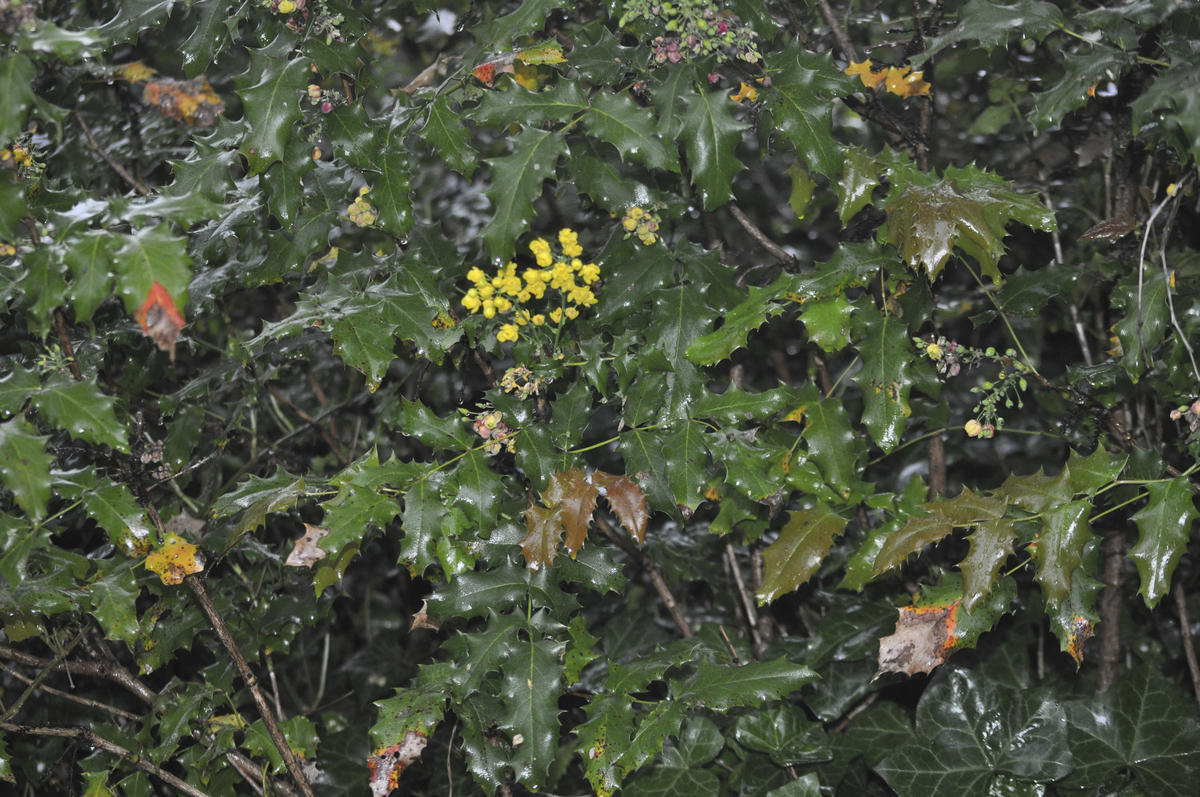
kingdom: Plantae
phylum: Tracheophyta
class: Magnoliopsida
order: Ranunculales
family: Berberidaceae
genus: Mahonia
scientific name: Mahonia aquifolium
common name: Oregon-grape
